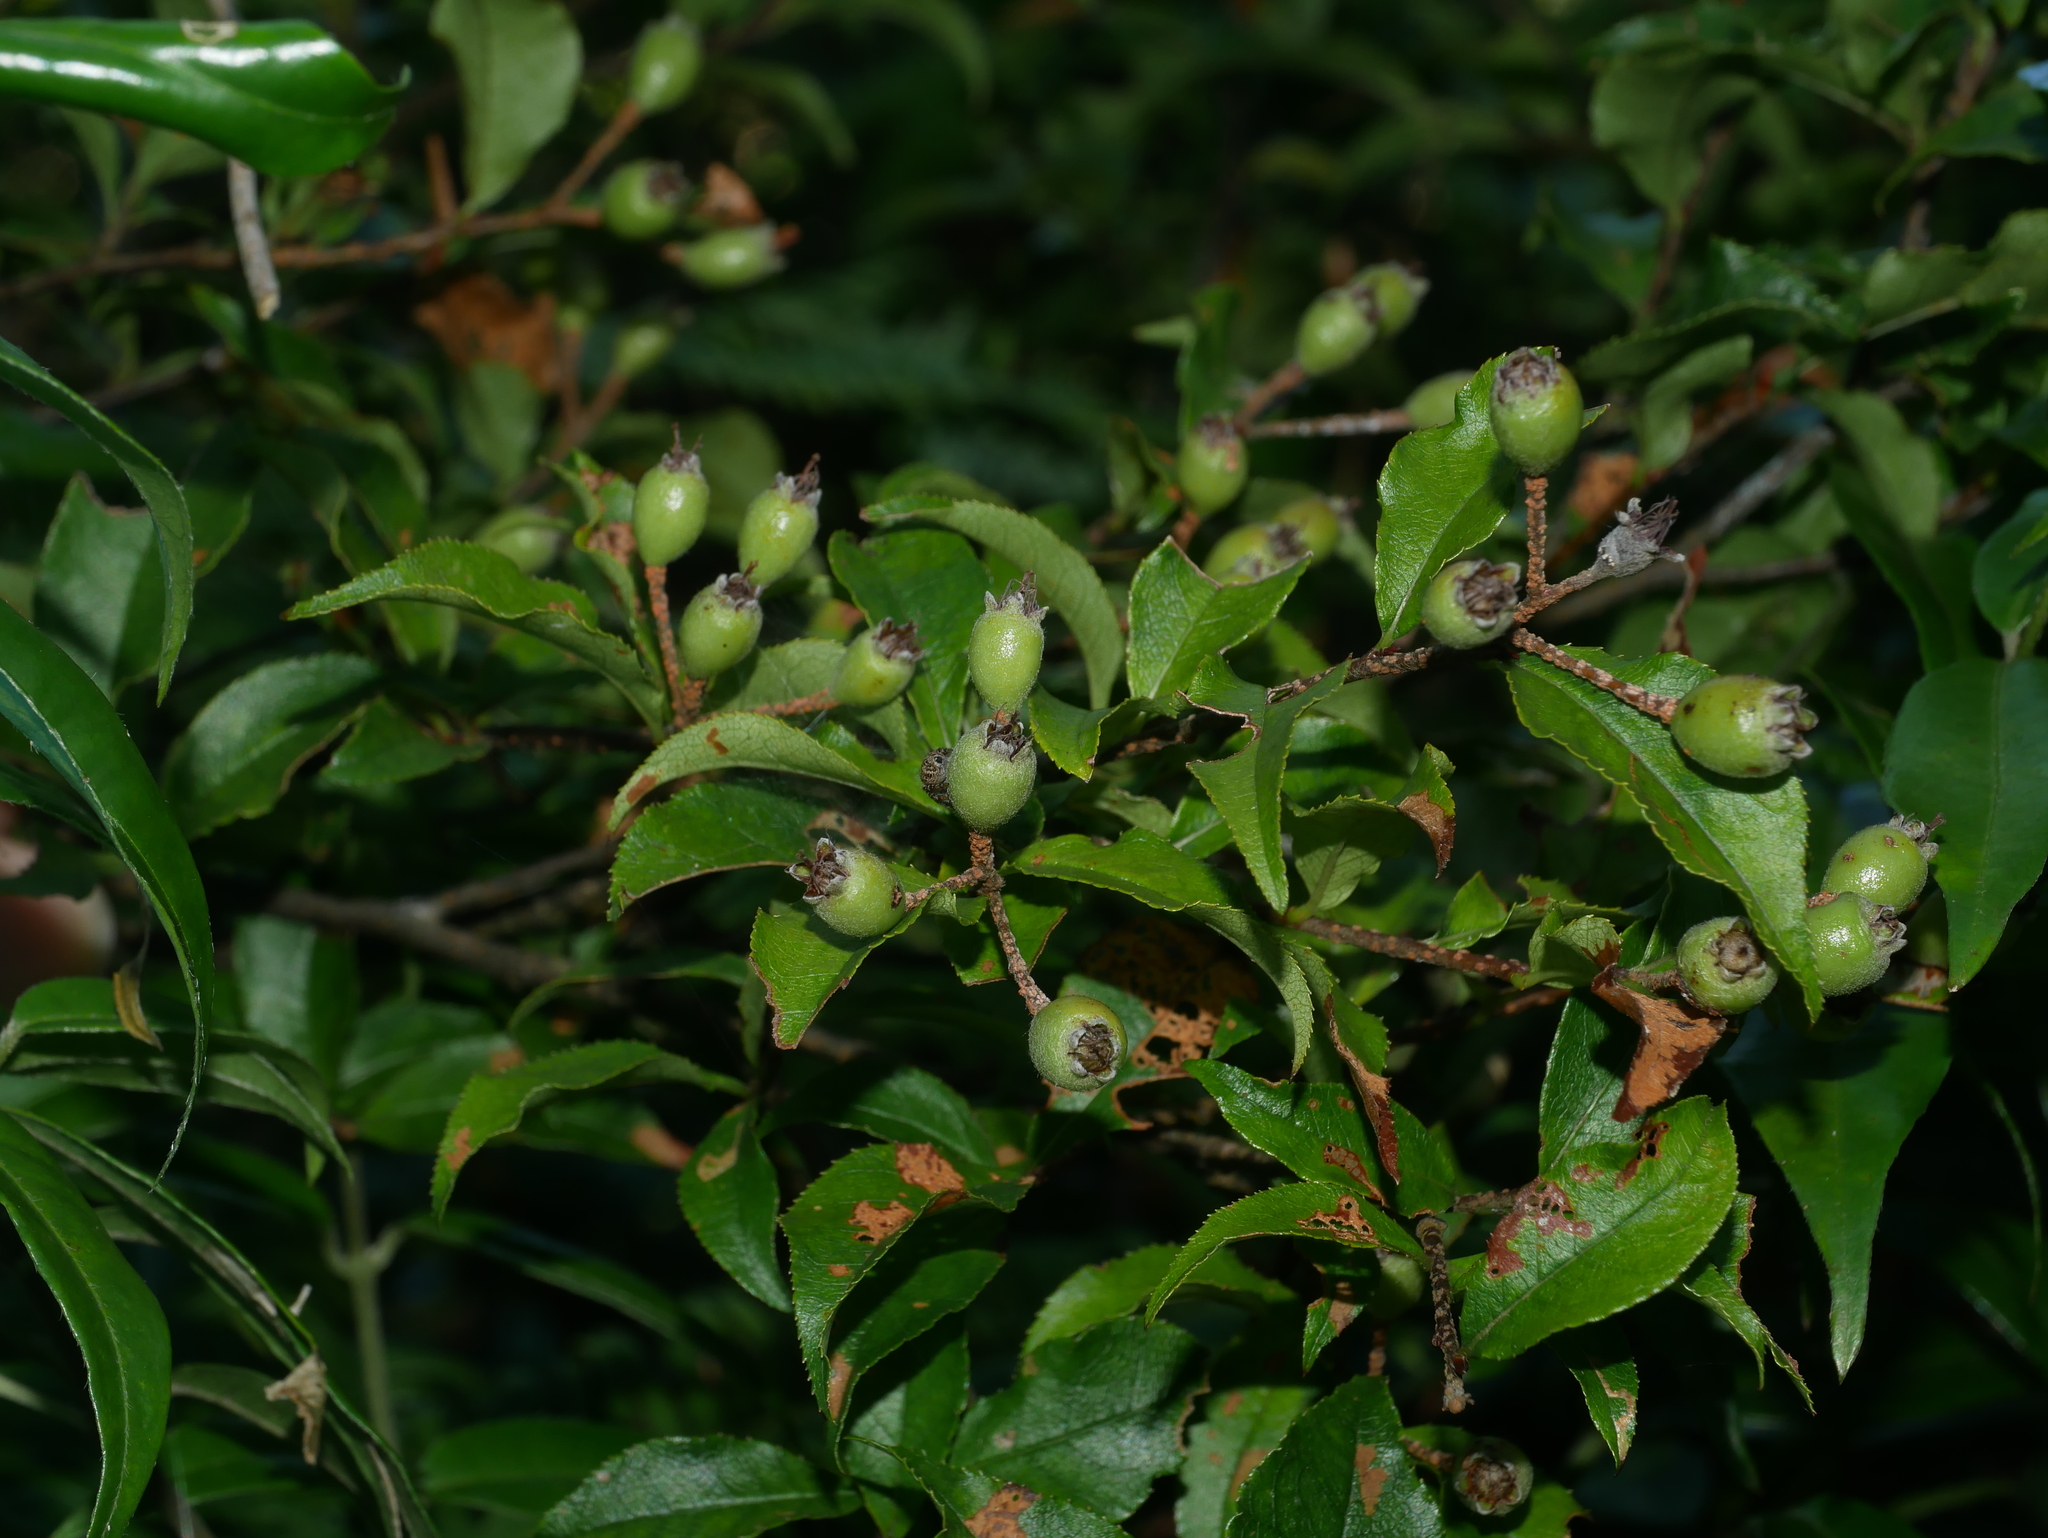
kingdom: Plantae
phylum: Tracheophyta
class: Magnoliopsida
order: Rosales
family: Rosaceae
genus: Pourthiaea
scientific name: Pourthiaea villosa
